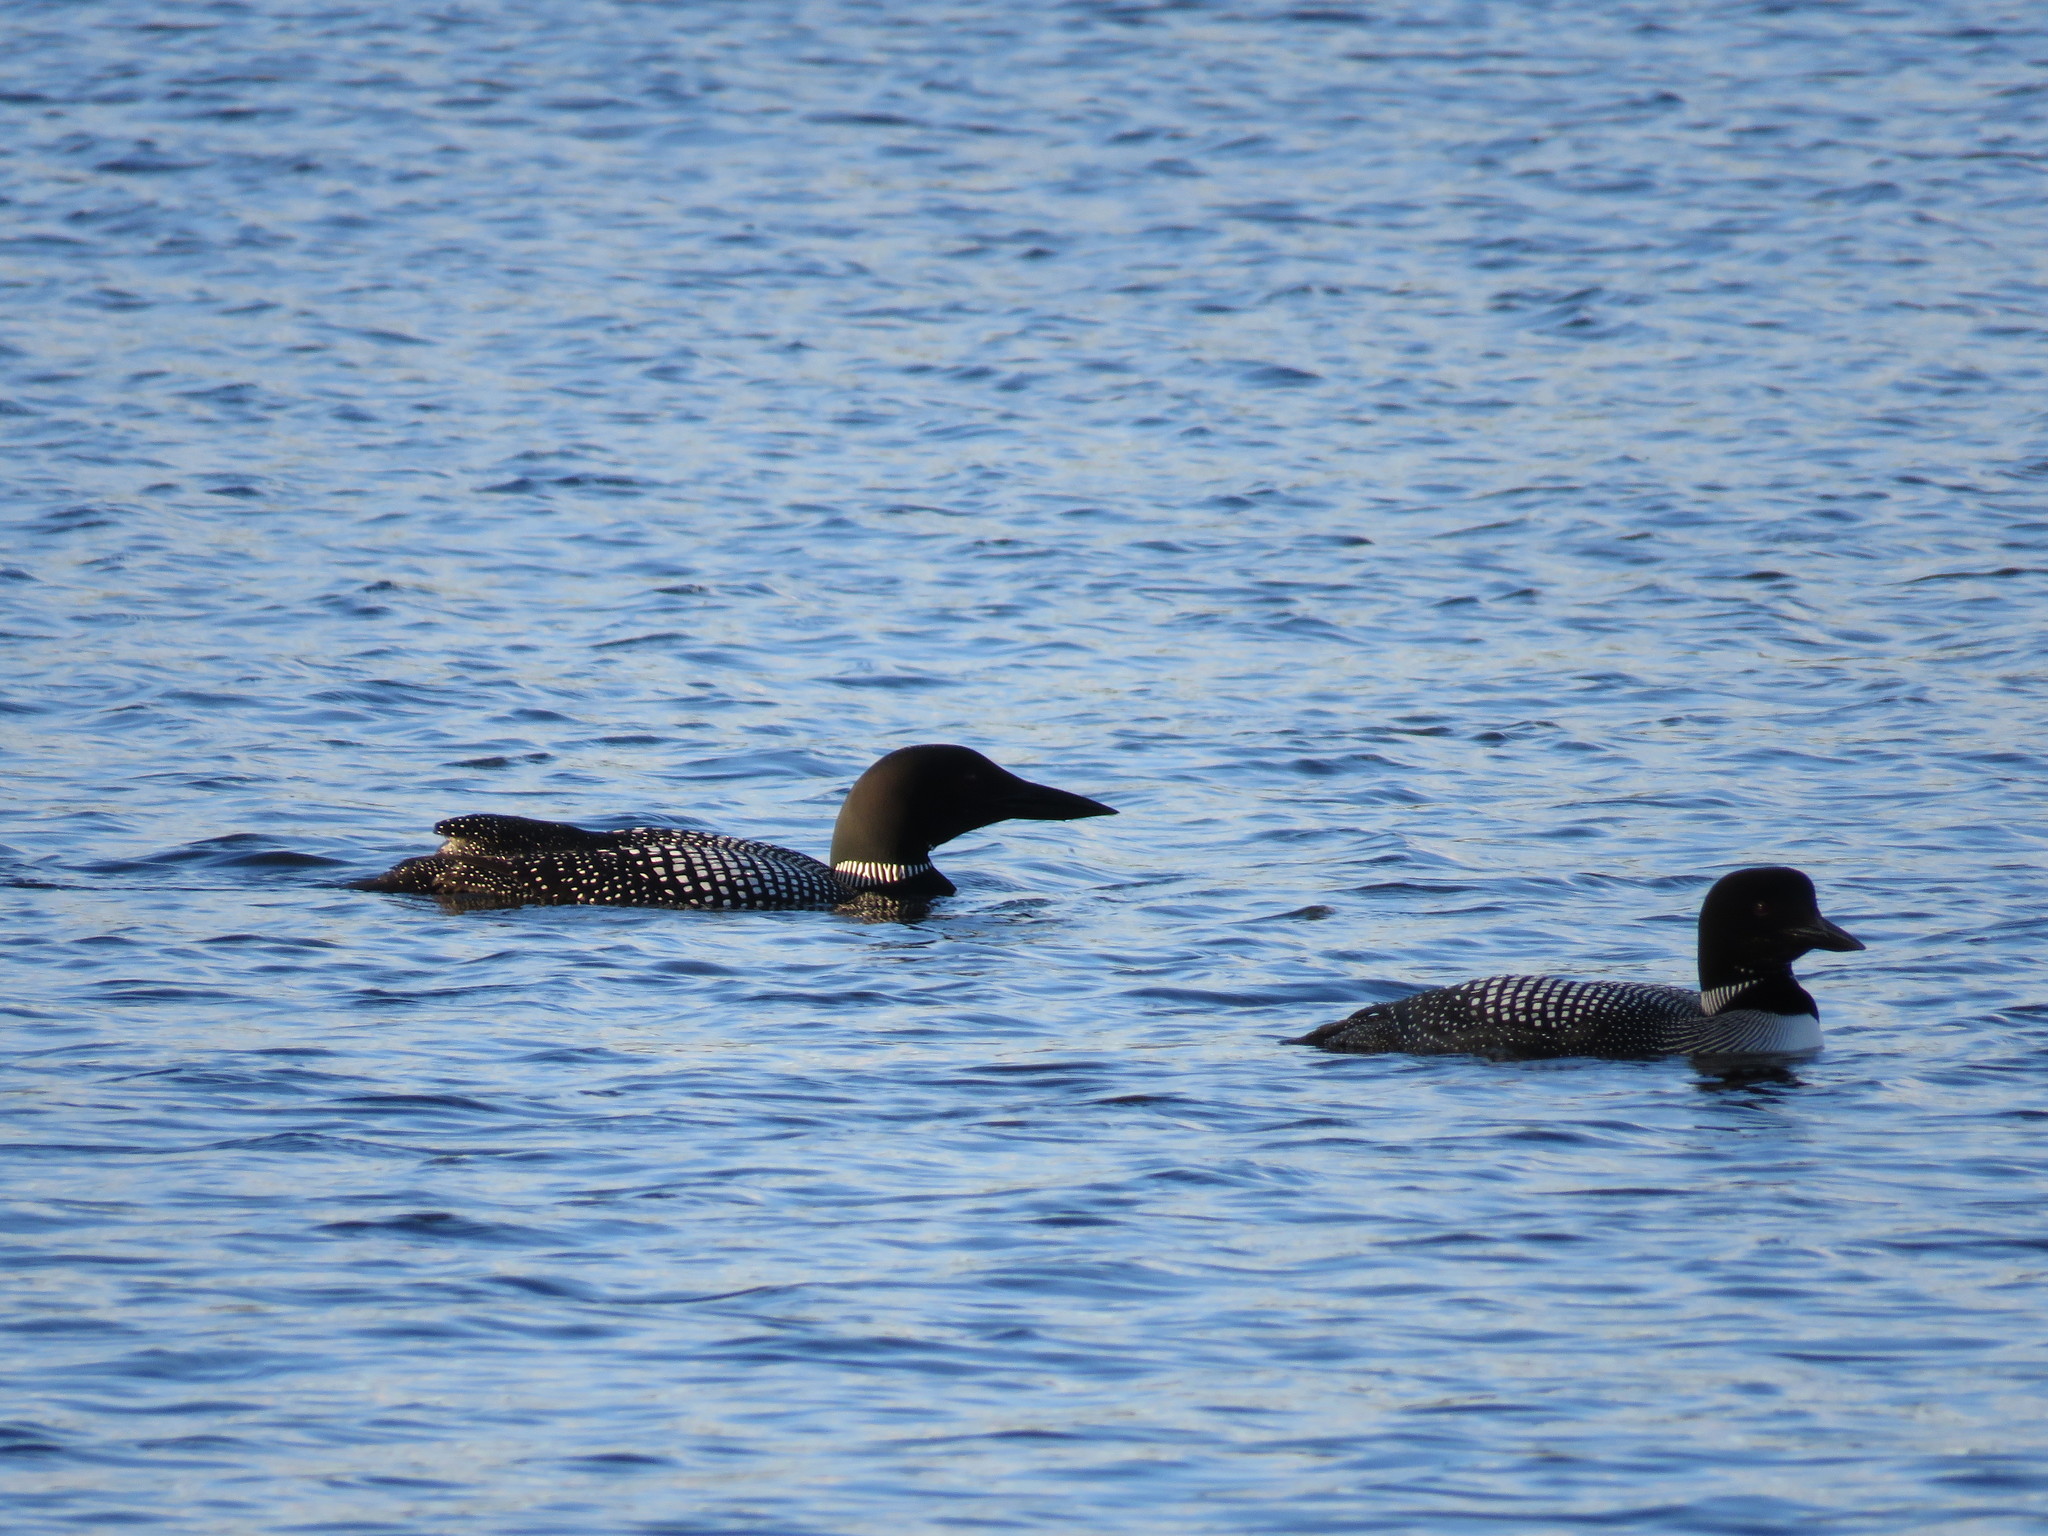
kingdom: Animalia
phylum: Chordata
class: Aves
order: Gaviiformes
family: Gaviidae
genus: Gavia
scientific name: Gavia immer
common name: Common loon
